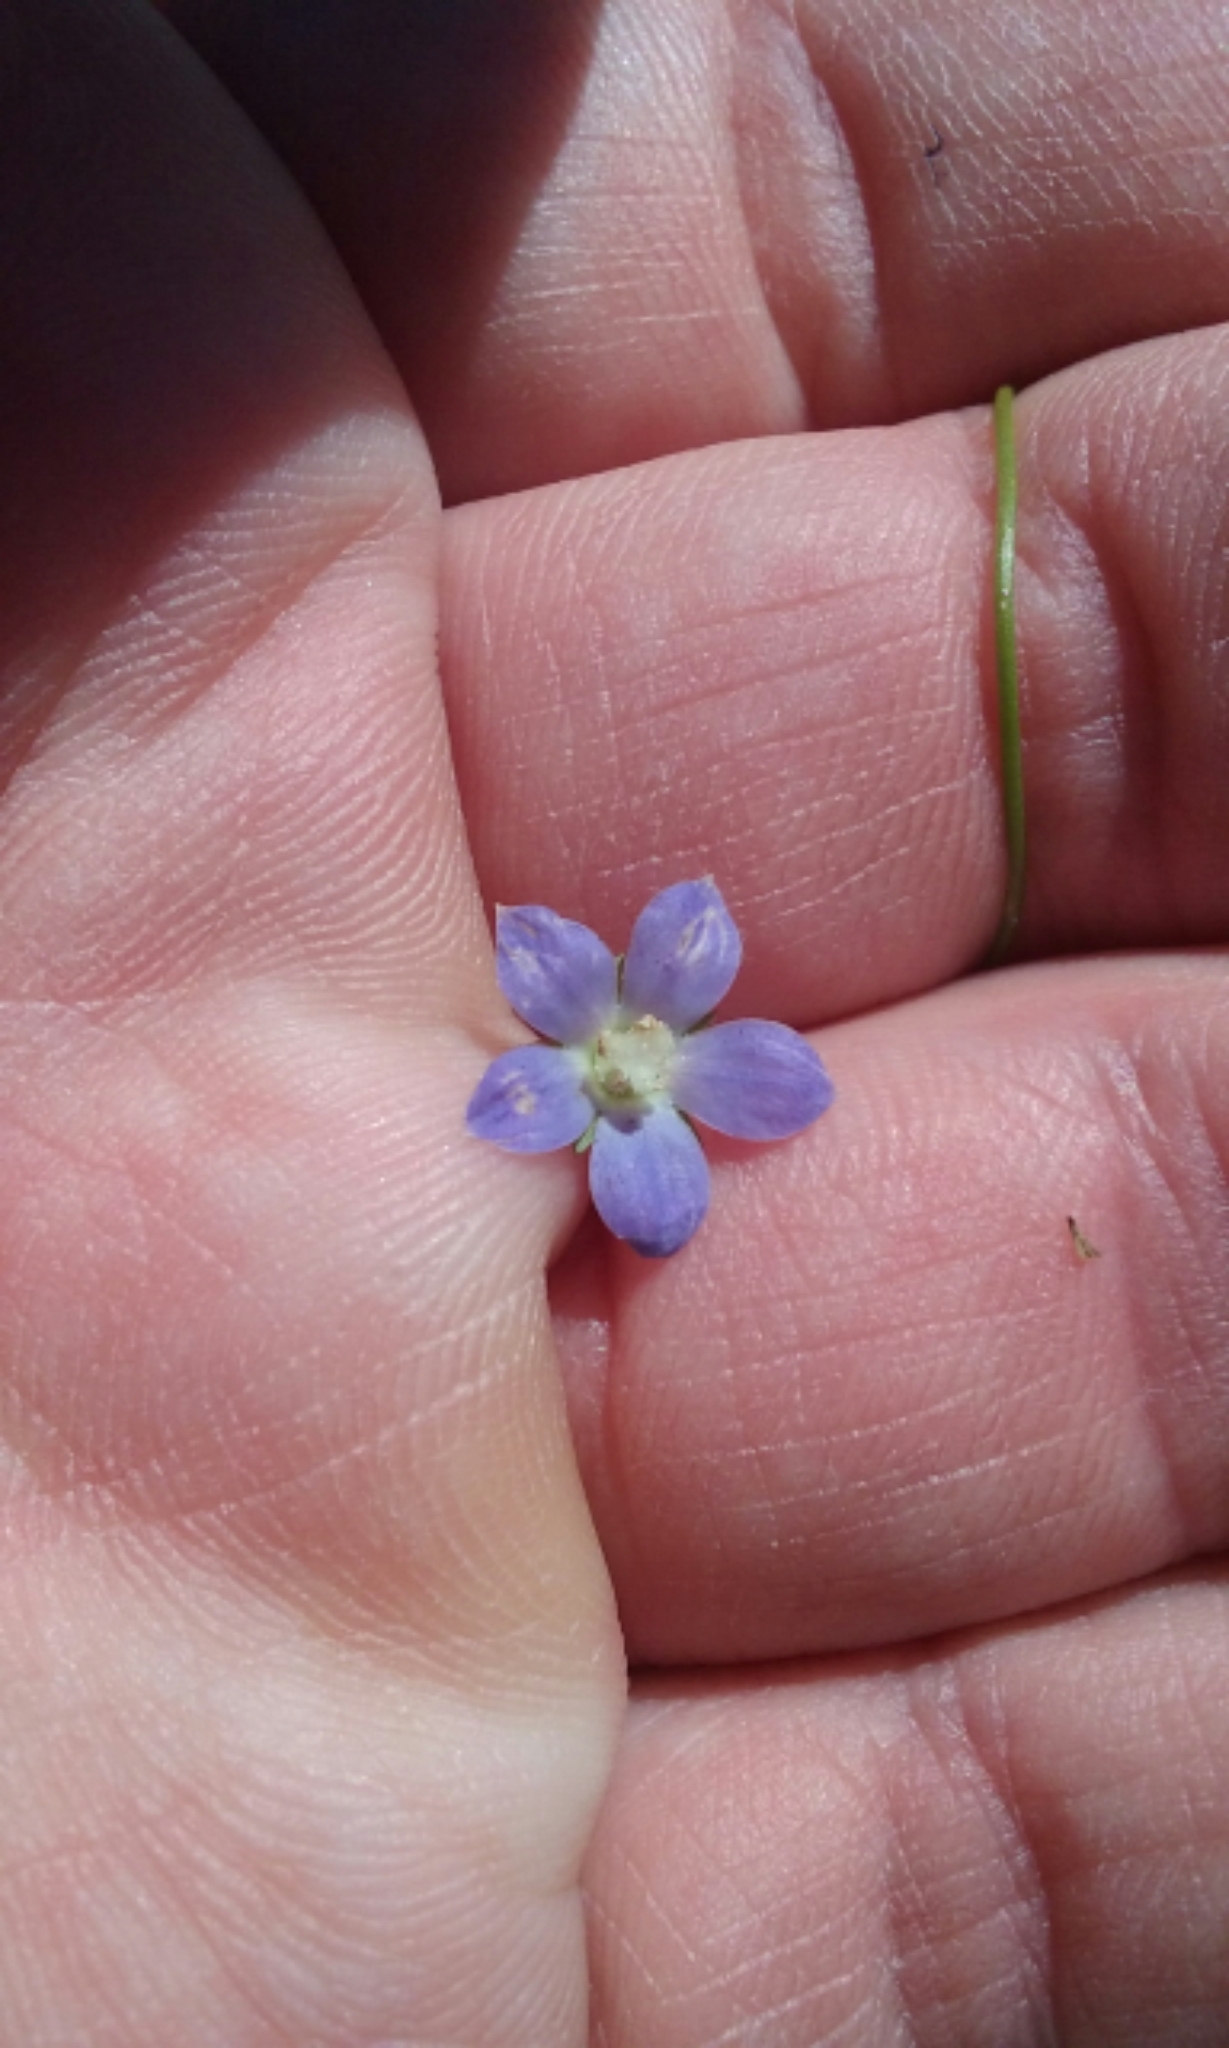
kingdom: Plantae
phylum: Tracheophyta
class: Magnoliopsida
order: Asterales
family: Campanulaceae
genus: Wahlenbergia
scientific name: Wahlenbergia marginata
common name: Southern rockbell
